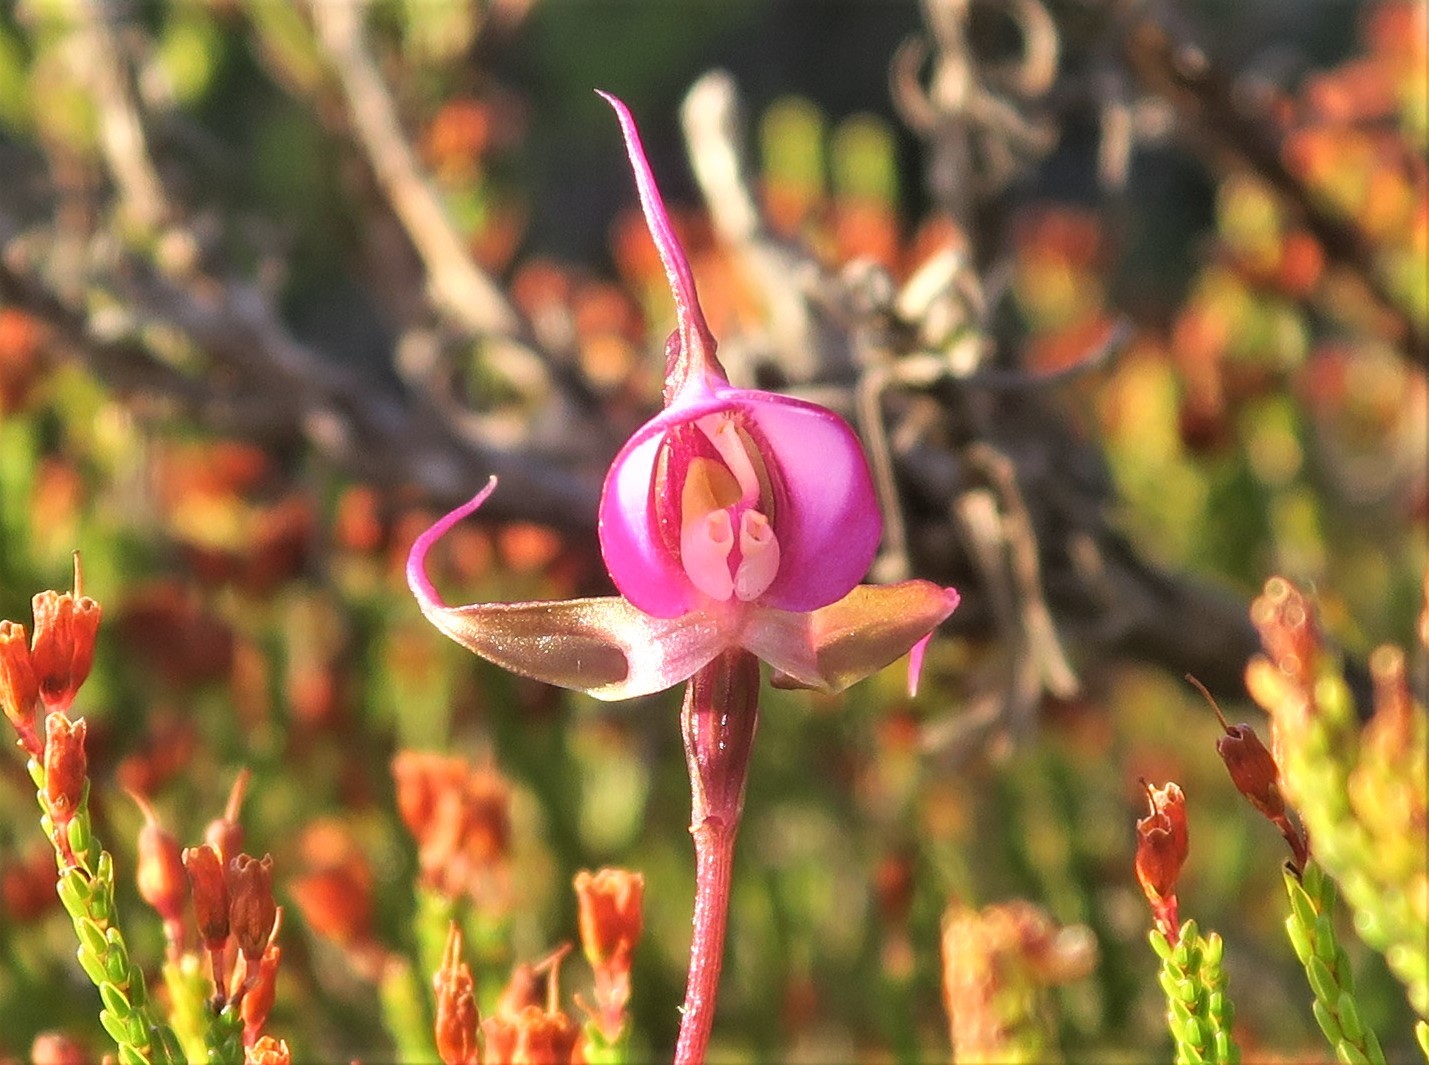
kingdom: Plantae
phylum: Tracheophyta
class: Liliopsida
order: Asparagales
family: Orchidaceae
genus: Disperis
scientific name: Disperis capensis
